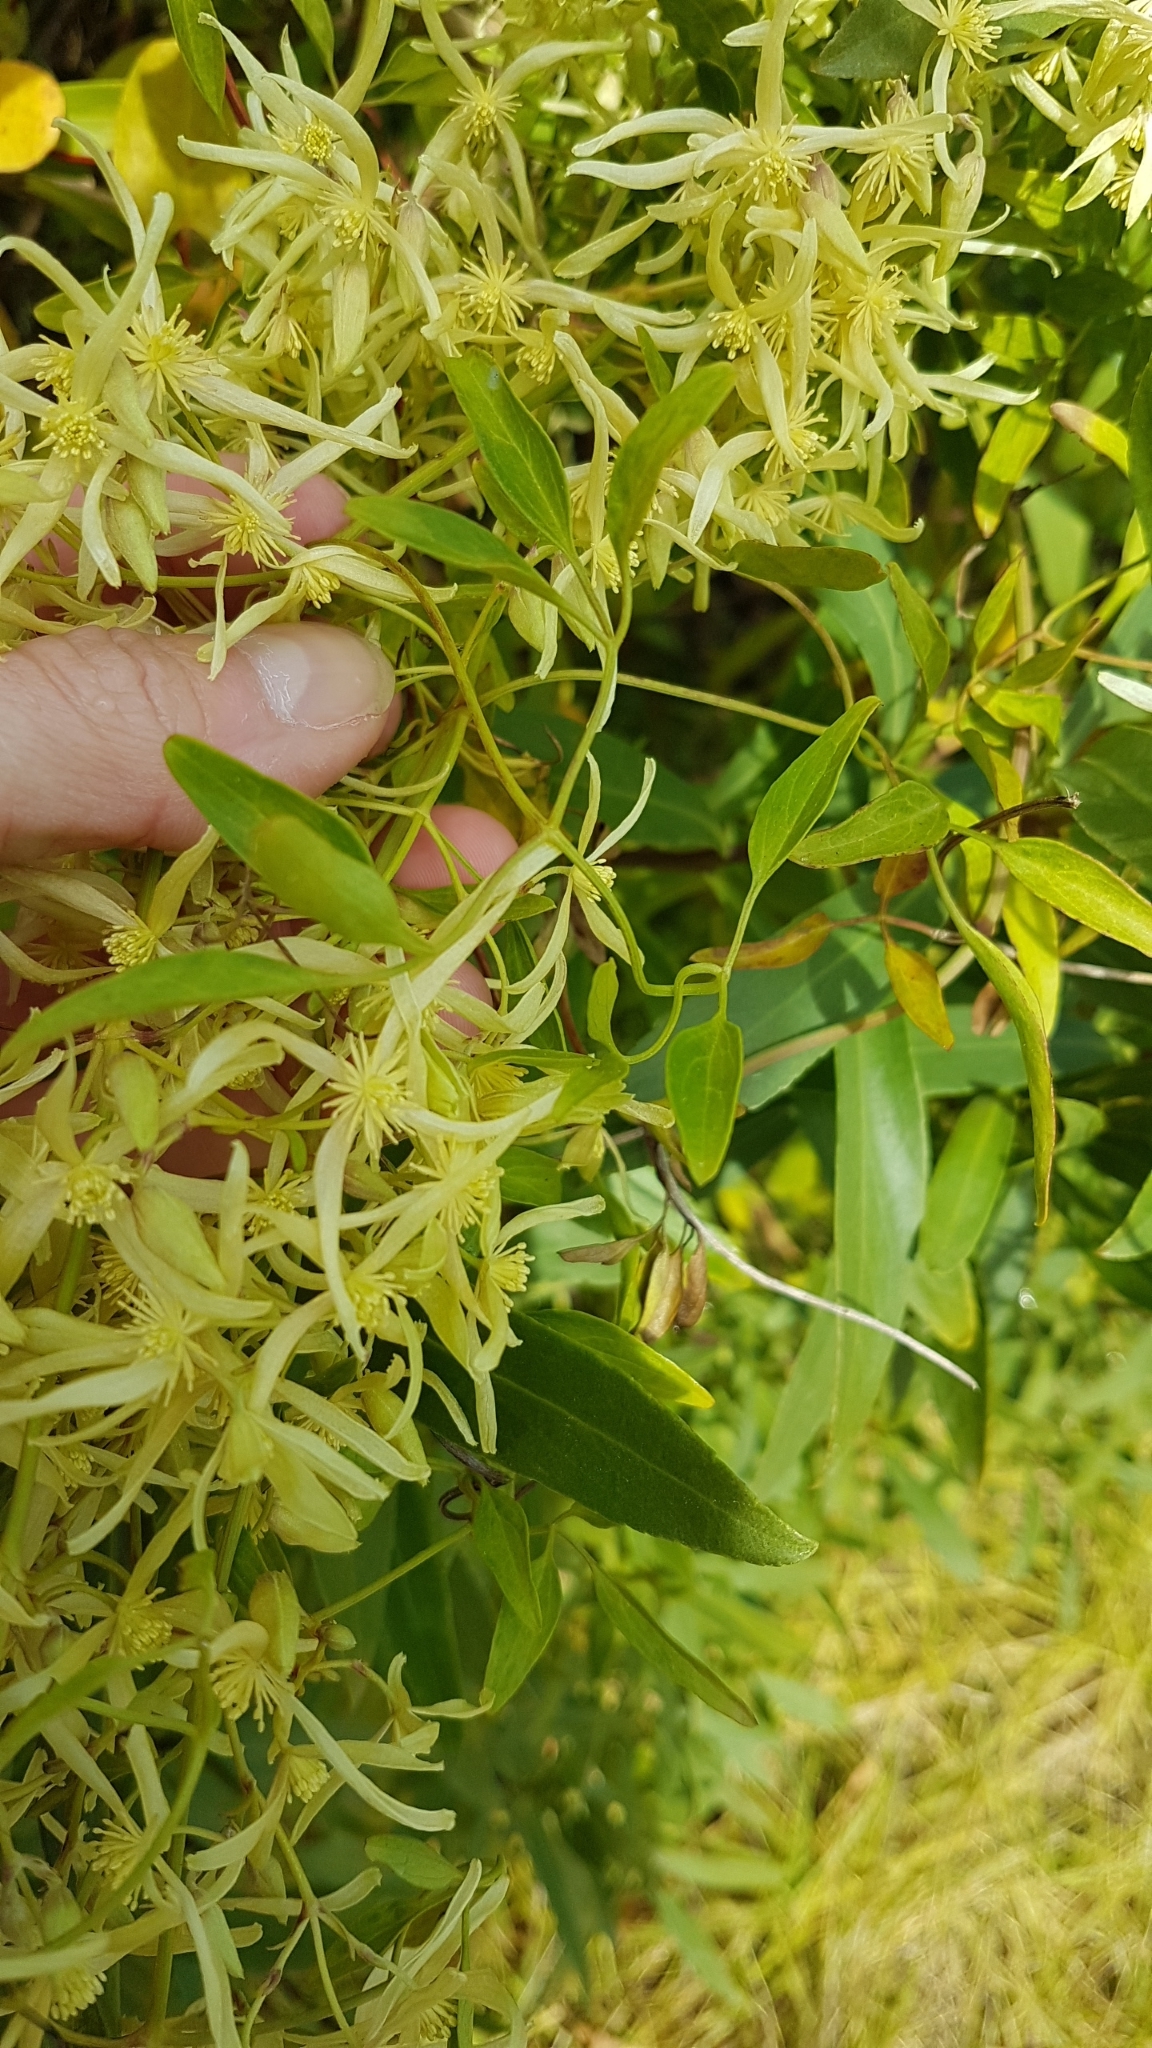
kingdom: Plantae
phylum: Tracheophyta
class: Magnoliopsida
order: Ranunculales
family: Ranunculaceae
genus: Clematis
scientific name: Clematis microphylla
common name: Headachevine
